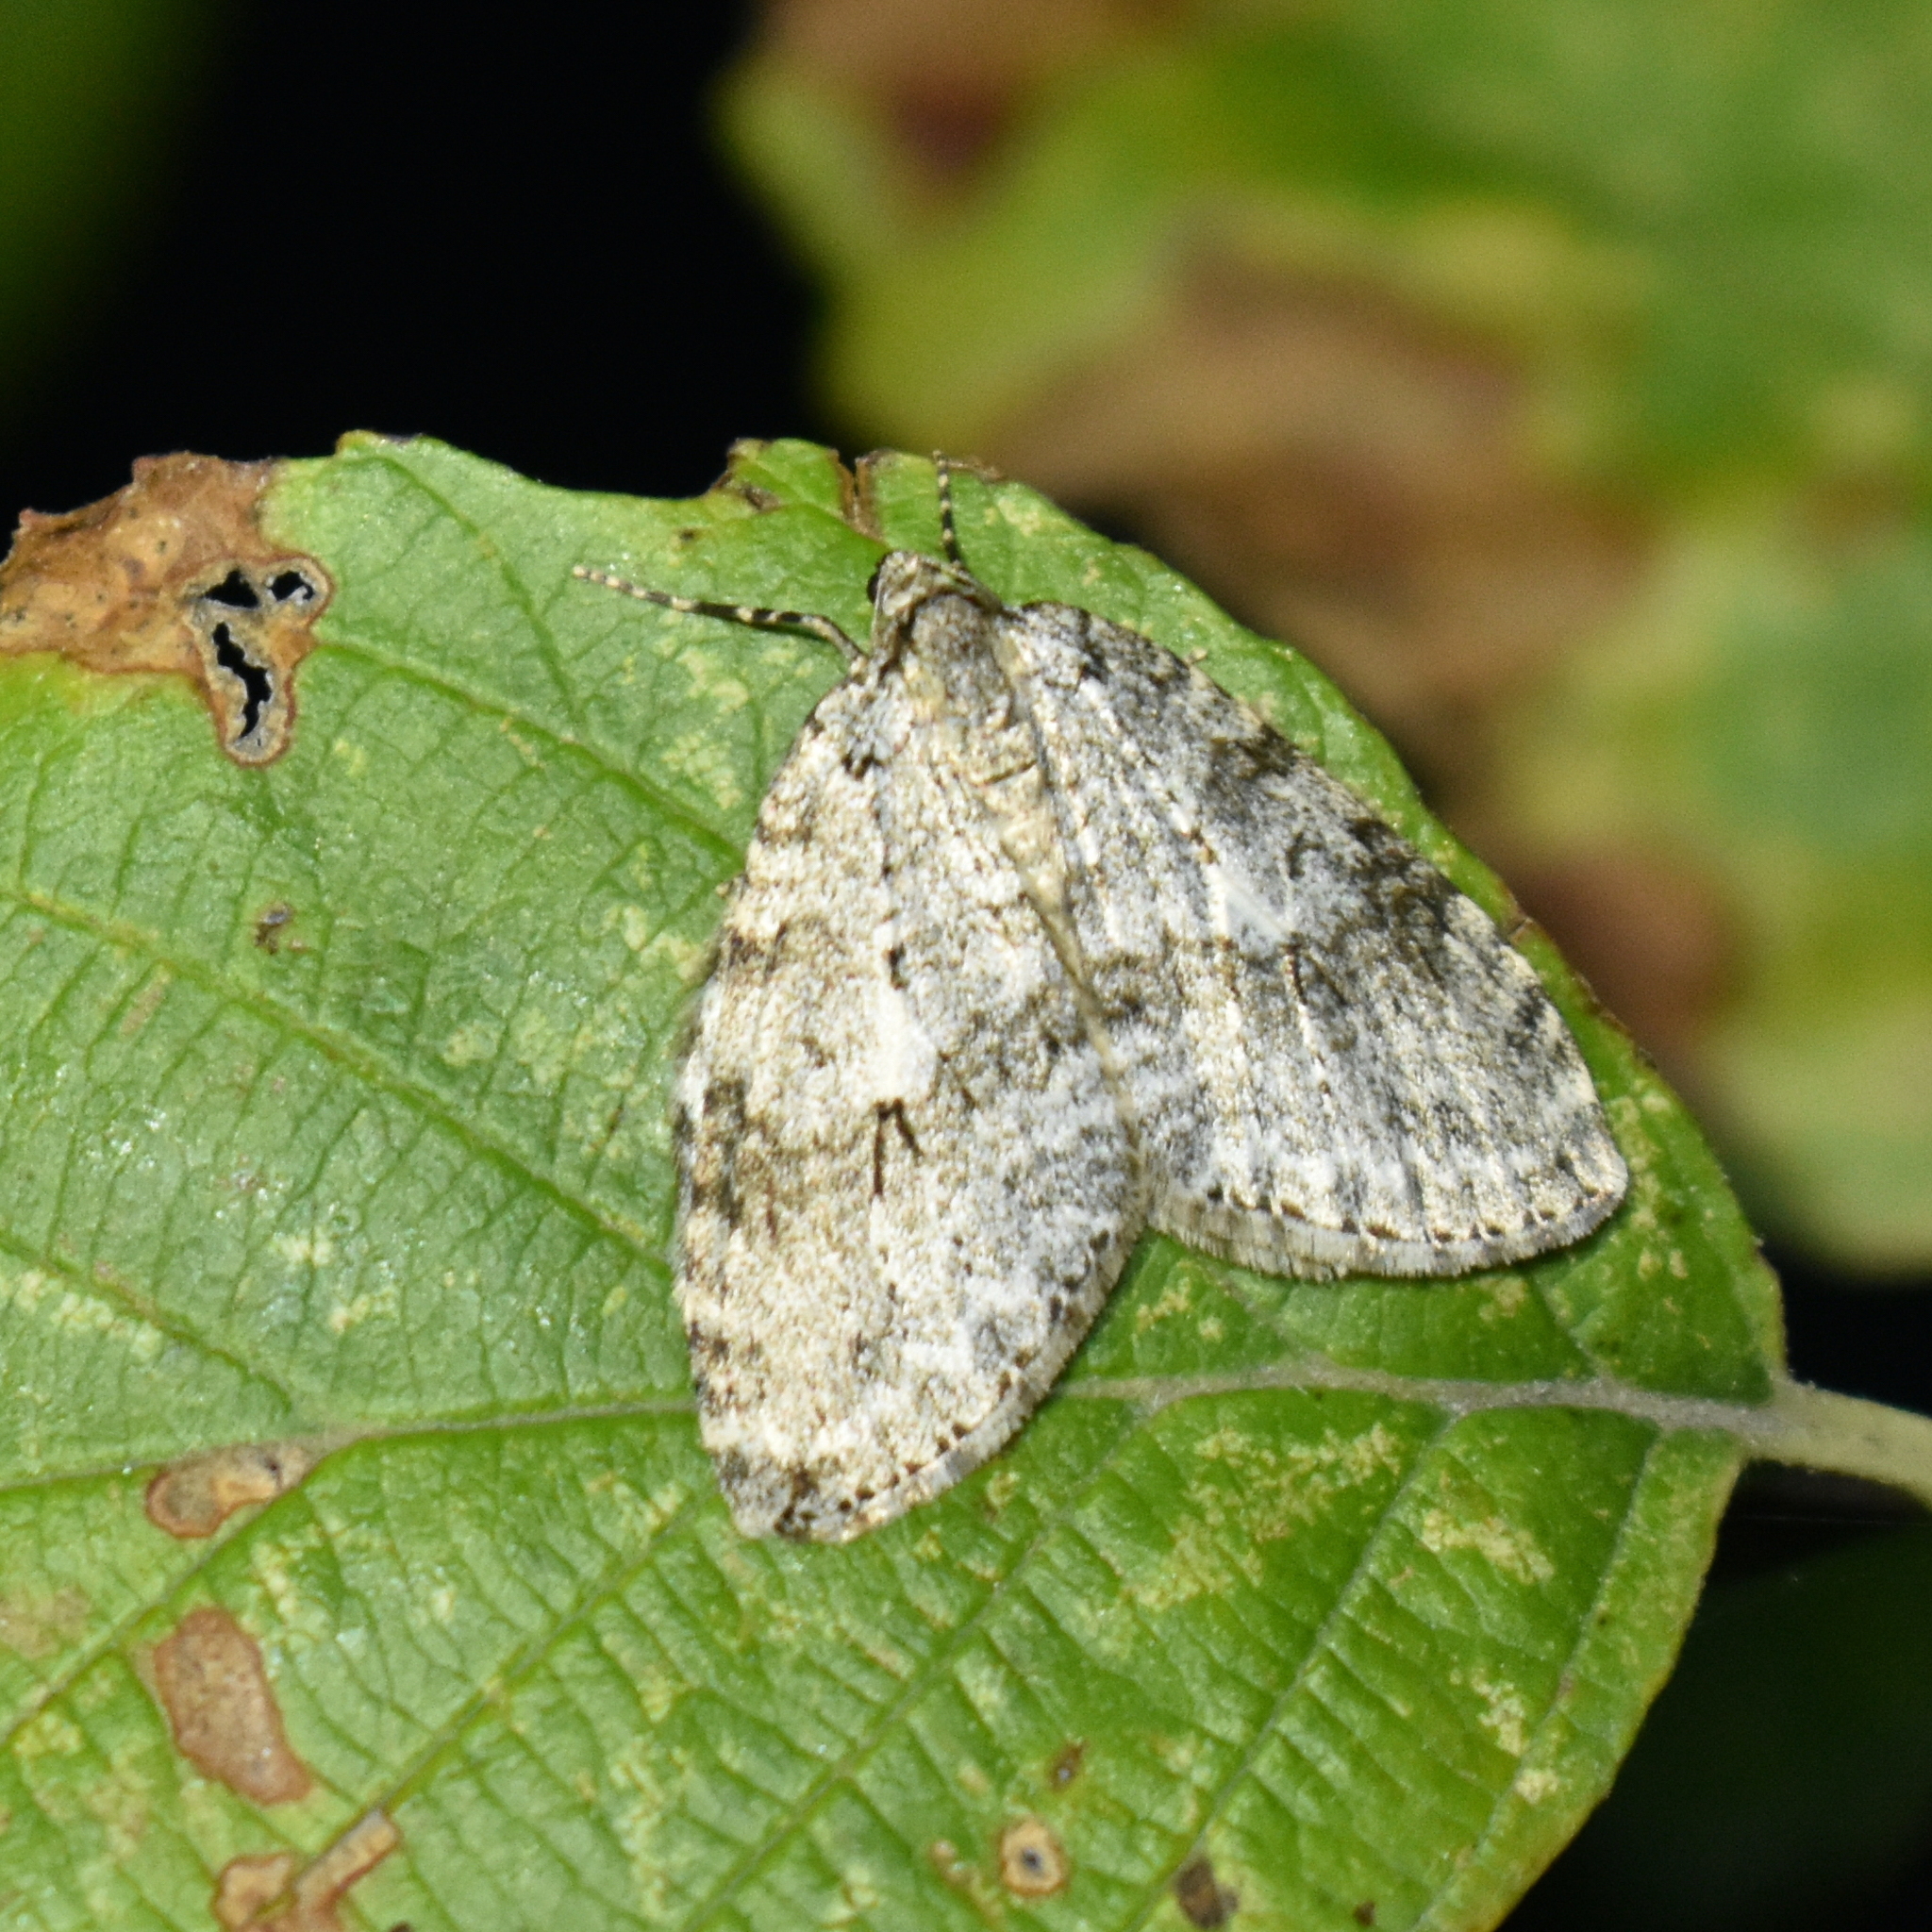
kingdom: Animalia
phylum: Arthropoda
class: Insecta
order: Lepidoptera
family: Geometridae
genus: Epirrita
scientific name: Epirrita autumnata
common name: Autumnal moth
